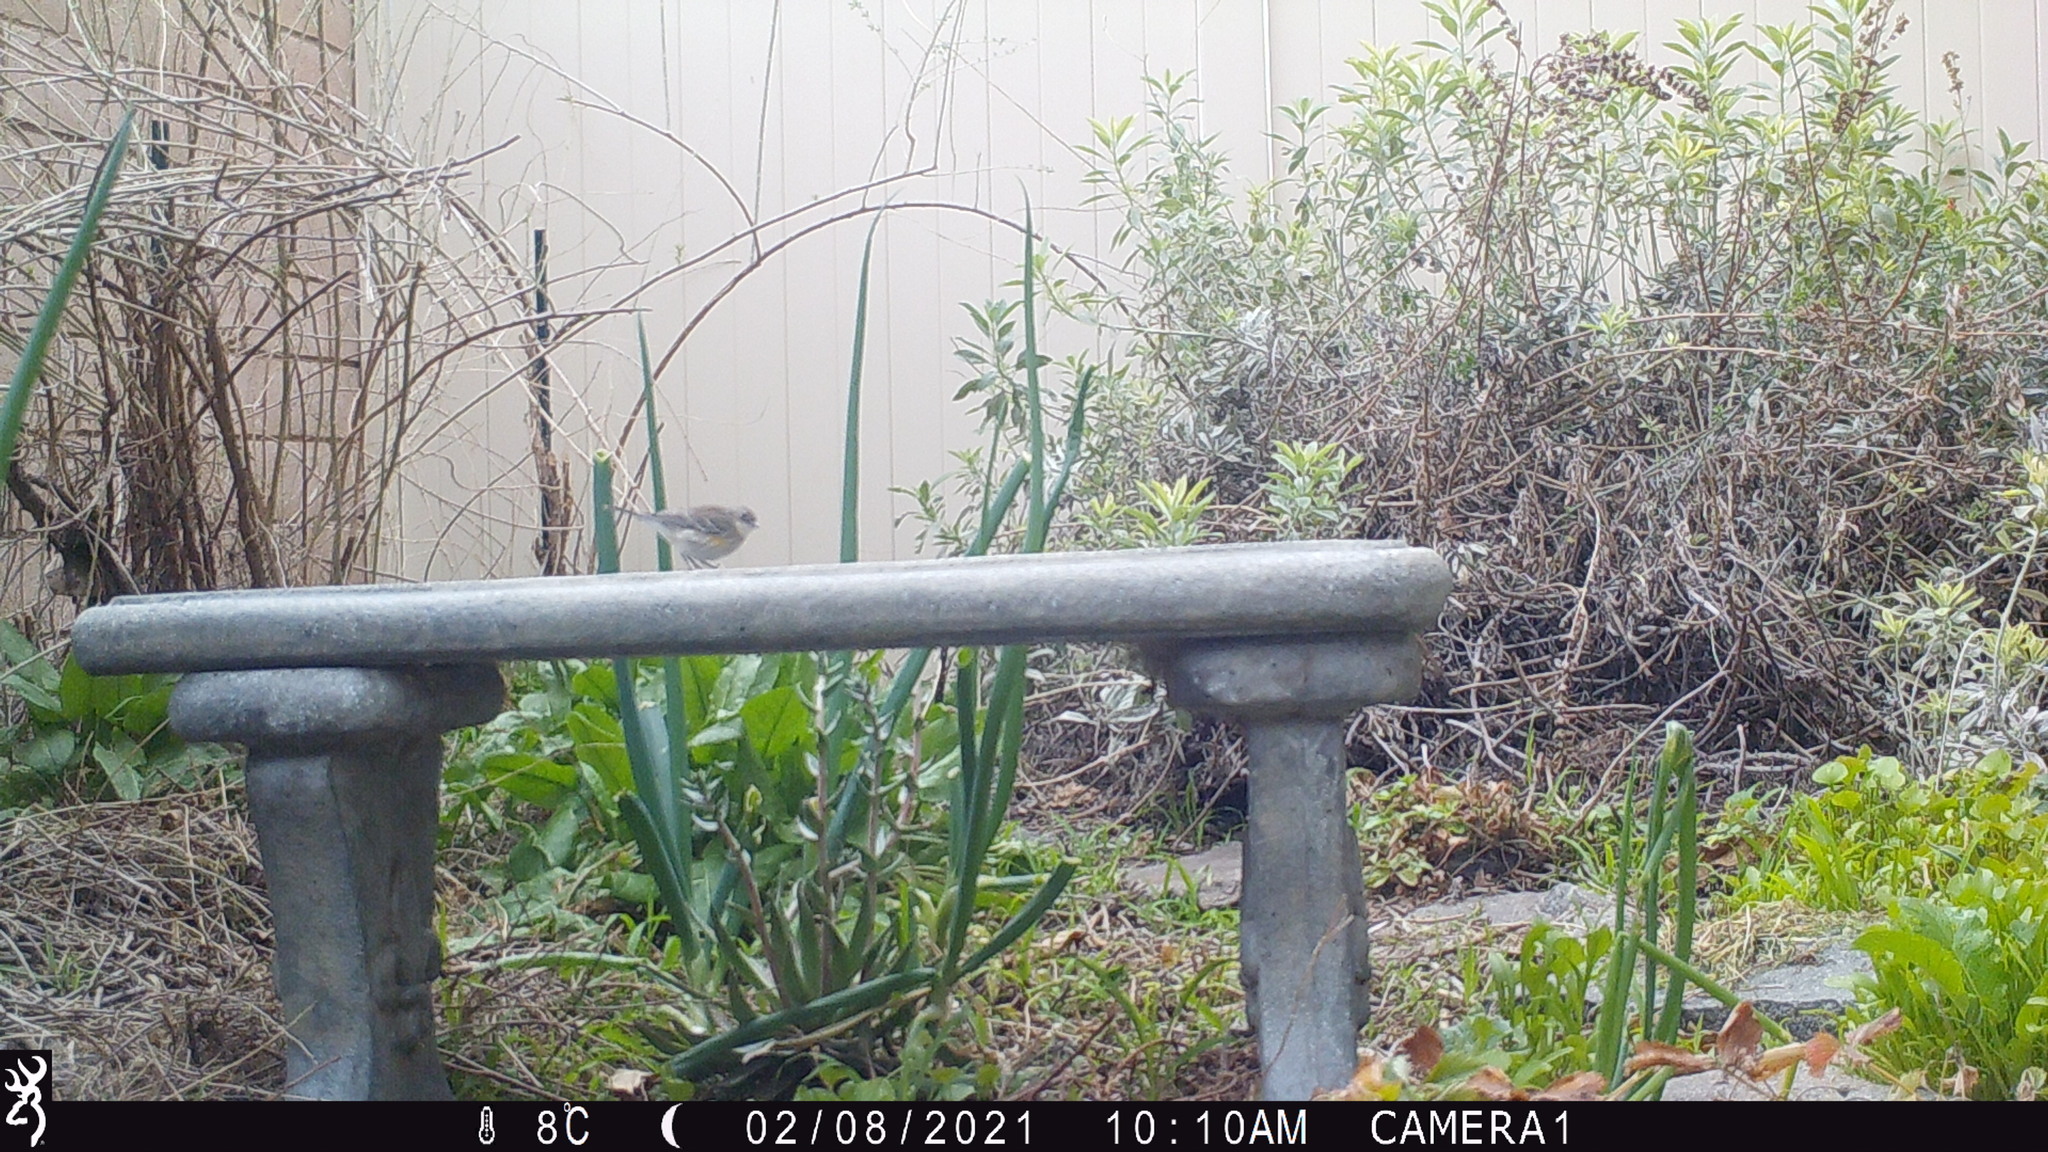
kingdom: Animalia
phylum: Chordata
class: Aves
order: Passeriformes
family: Parulidae
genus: Setophaga
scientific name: Setophaga coronata
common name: Myrtle warbler
